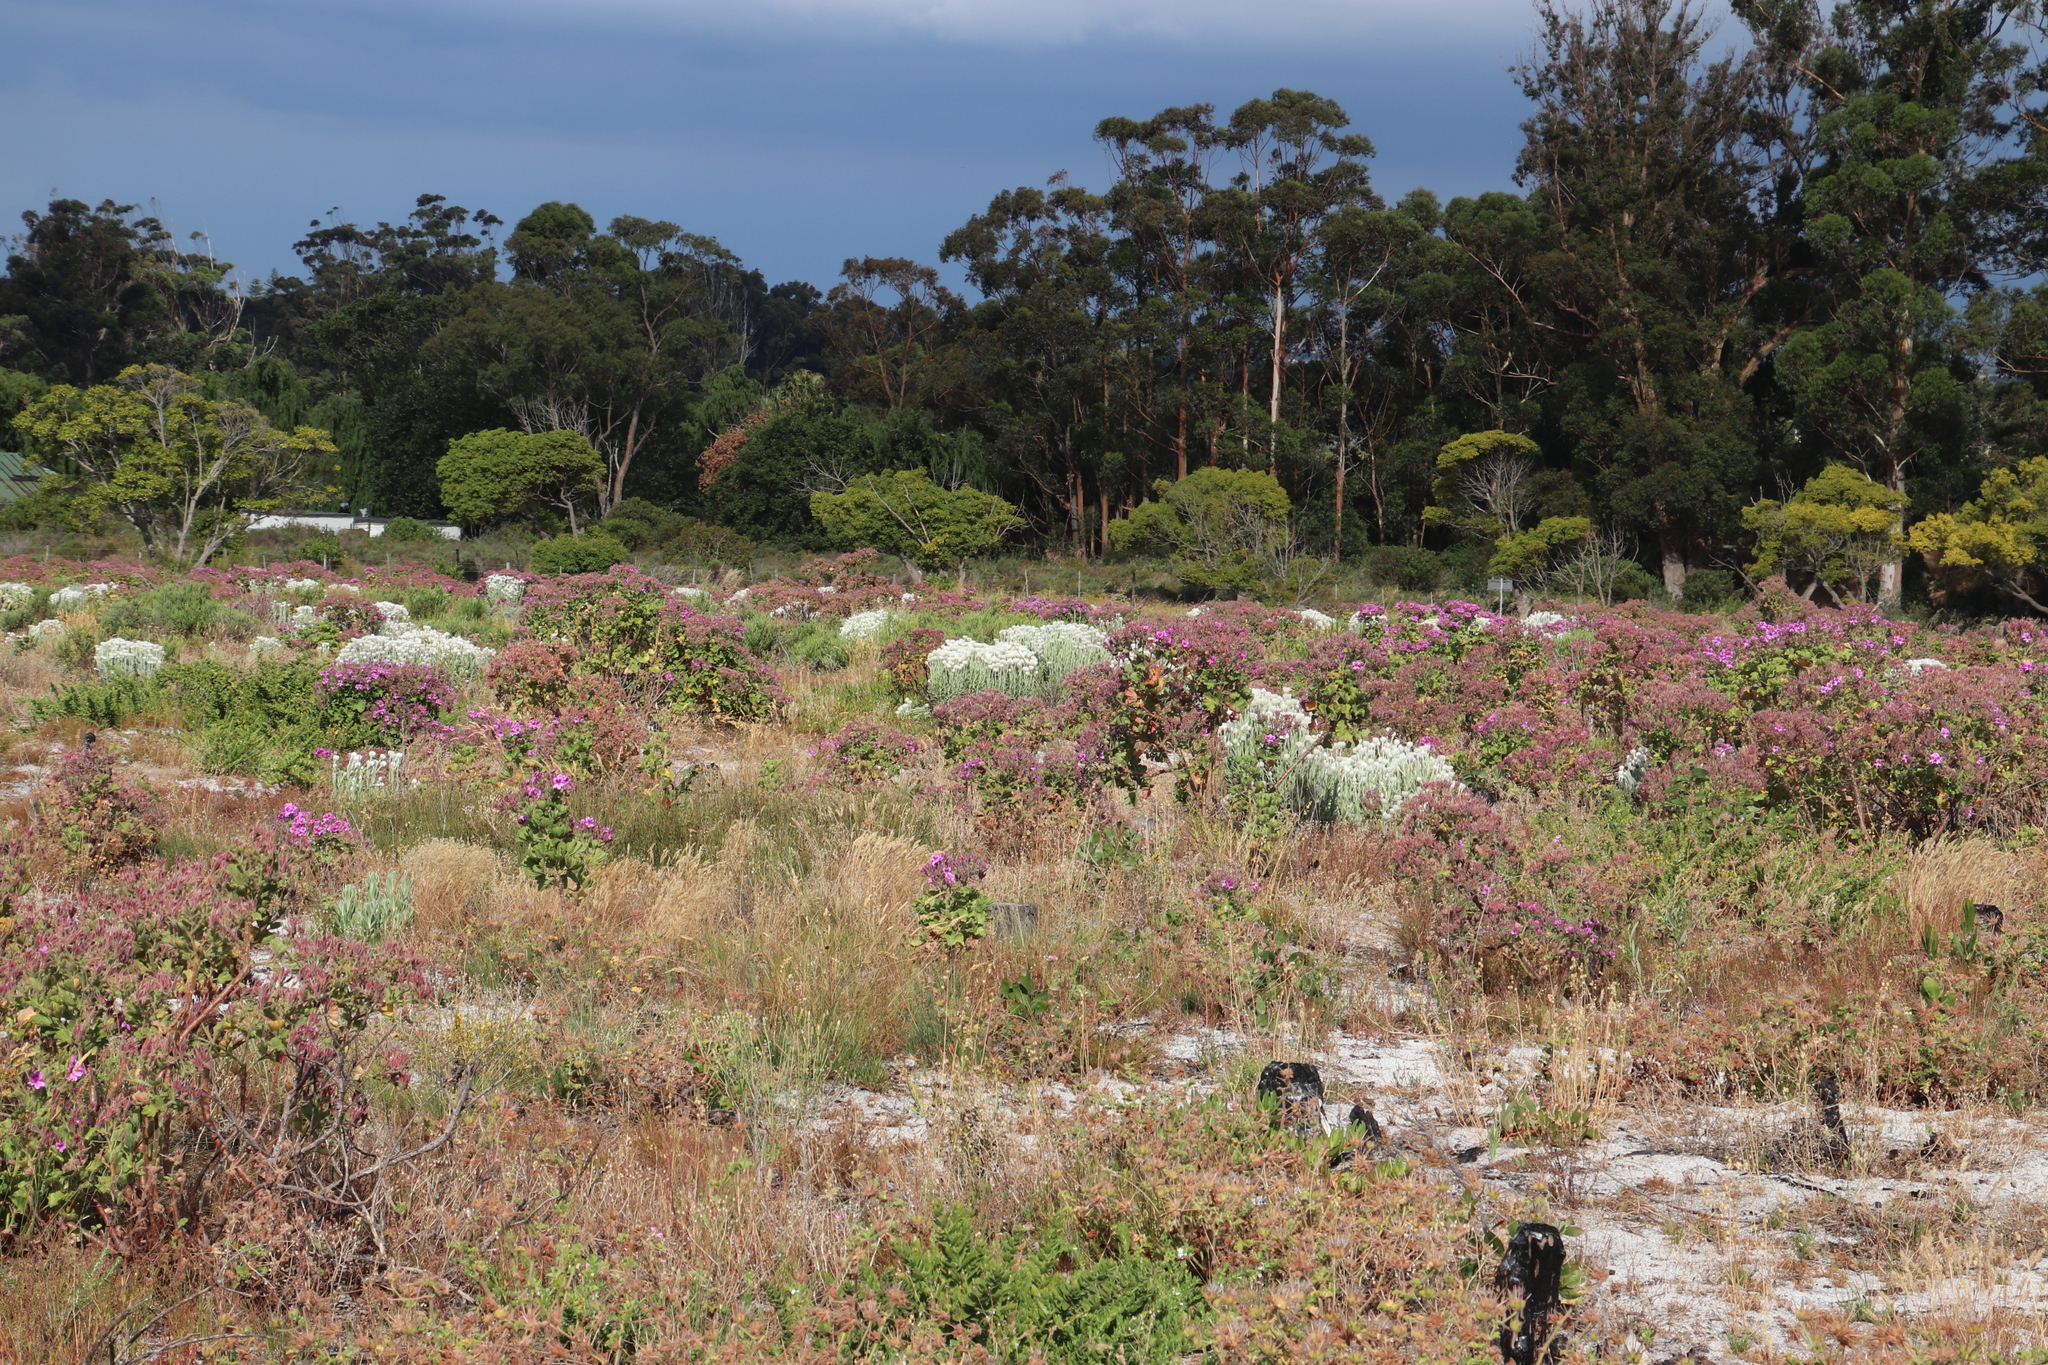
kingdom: Plantae
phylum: Tracheophyta
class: Magnoliopsida
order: Geraniales
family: Geraniaceae
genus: Pelargonium
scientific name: Pelargonium cucullatum
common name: Tree pelargonium
